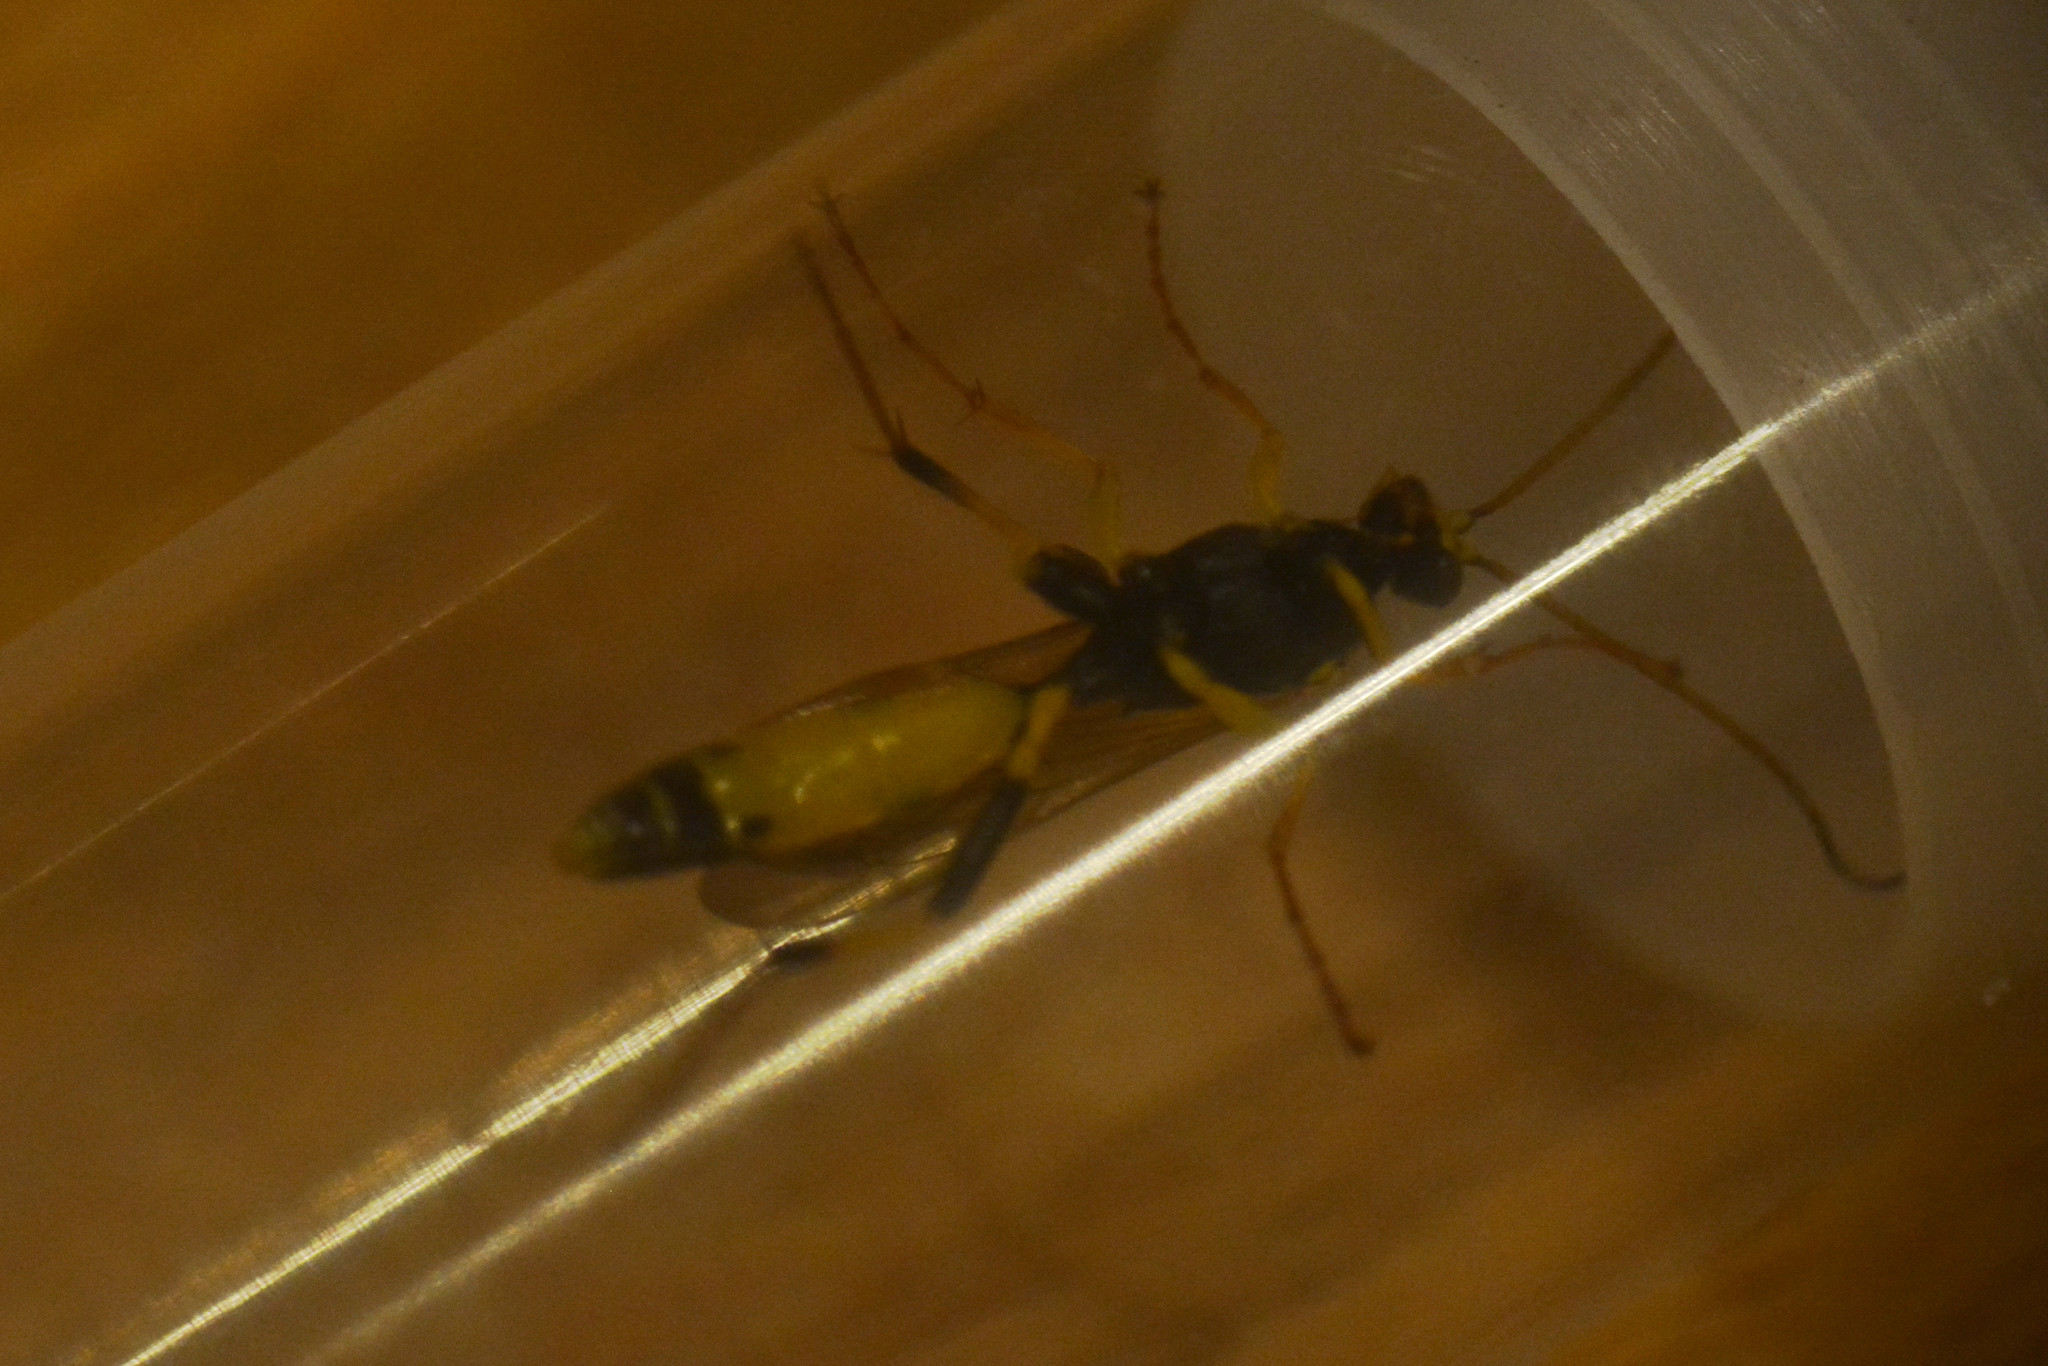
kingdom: Animalia
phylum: Arthropoda
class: Insecta
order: Hymenoptera
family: Ichneumonidae
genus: Amblyteles
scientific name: Amblyteles armatorius
